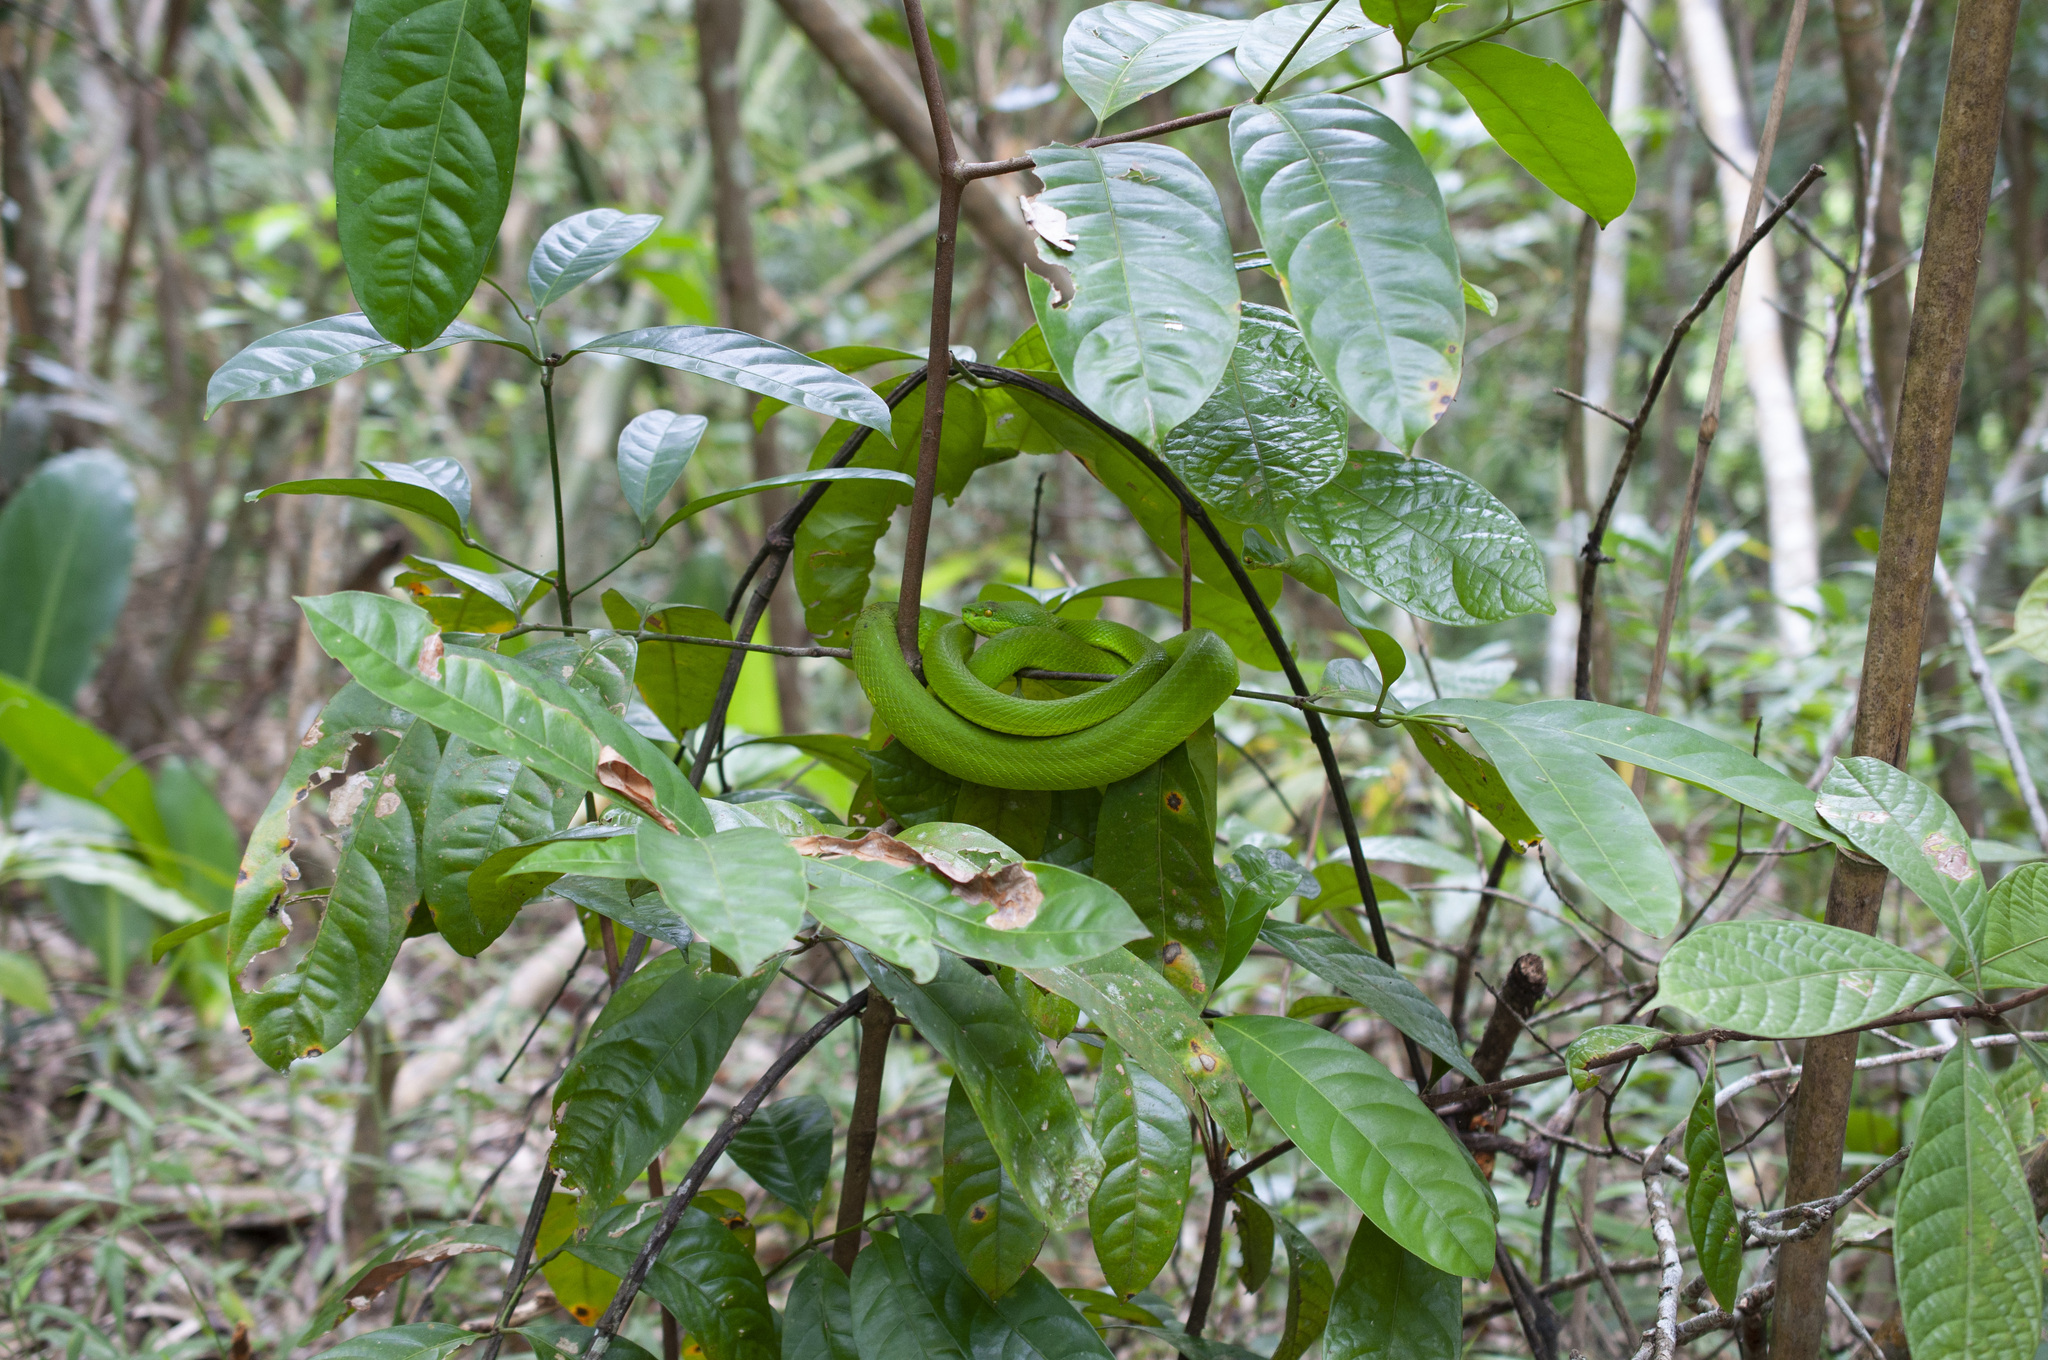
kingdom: Animalia
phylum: Chordata
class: Squamata
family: Viperidae
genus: Trimeresurus
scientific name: Trimeresurus albolabris
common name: White-lipped pitviper
